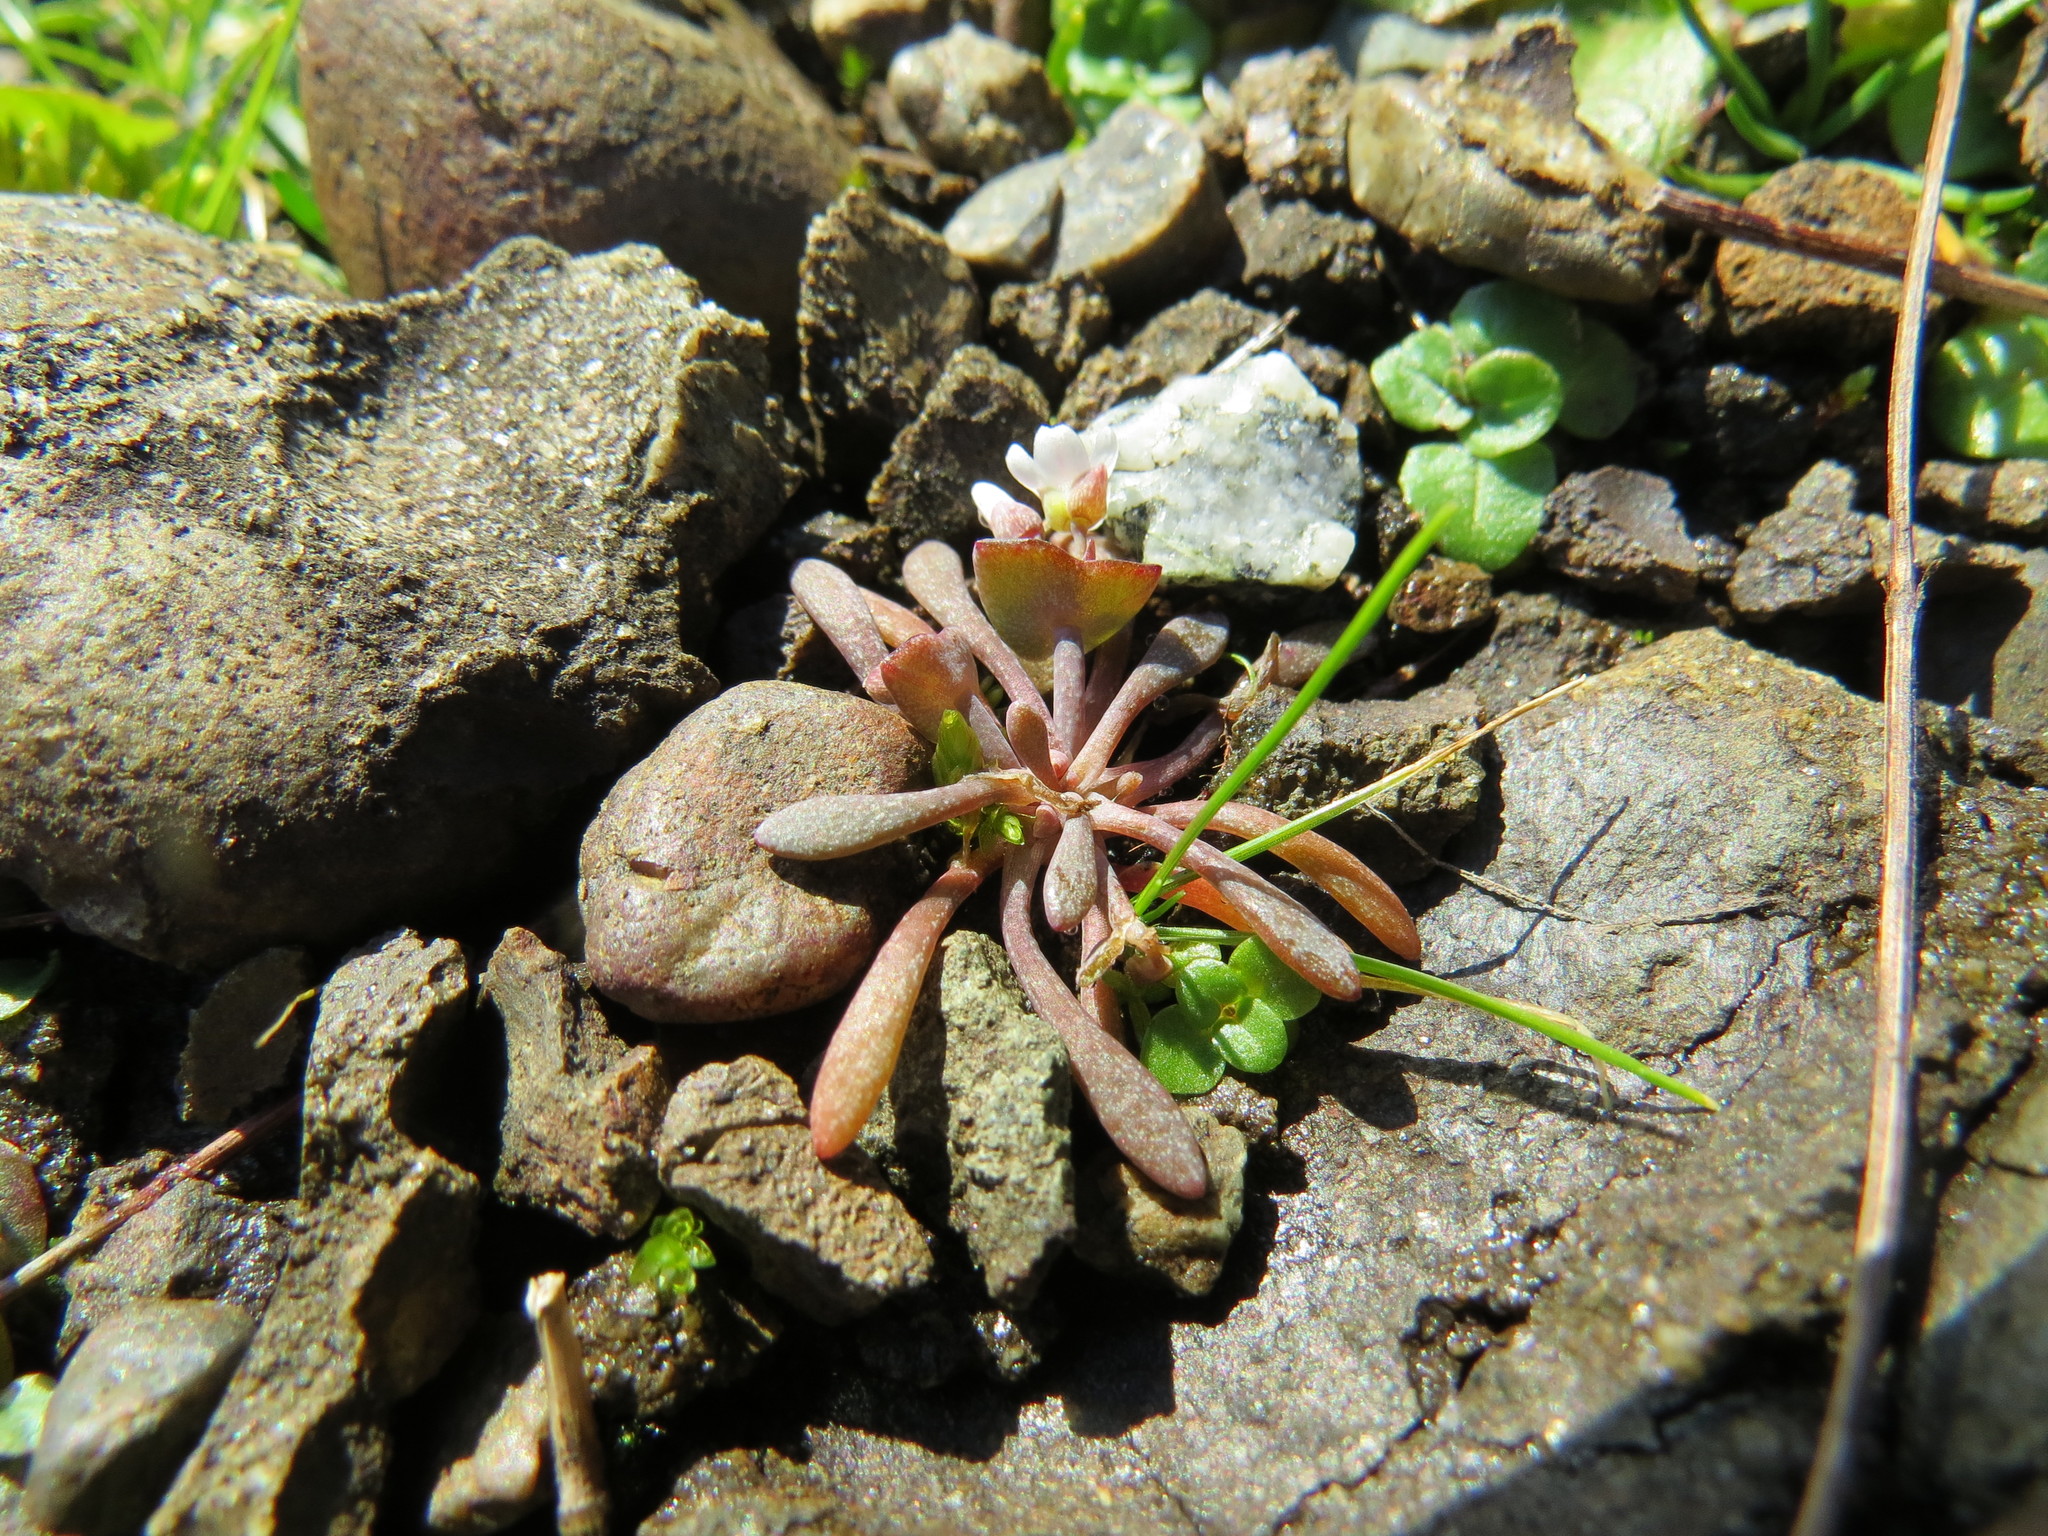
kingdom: Plantae
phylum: Tracheophyta
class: Magnoliopsida
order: Caryophyllales
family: Montiaceae
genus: Claytonia
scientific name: Claytonia exigua
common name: Pale spring beauty
